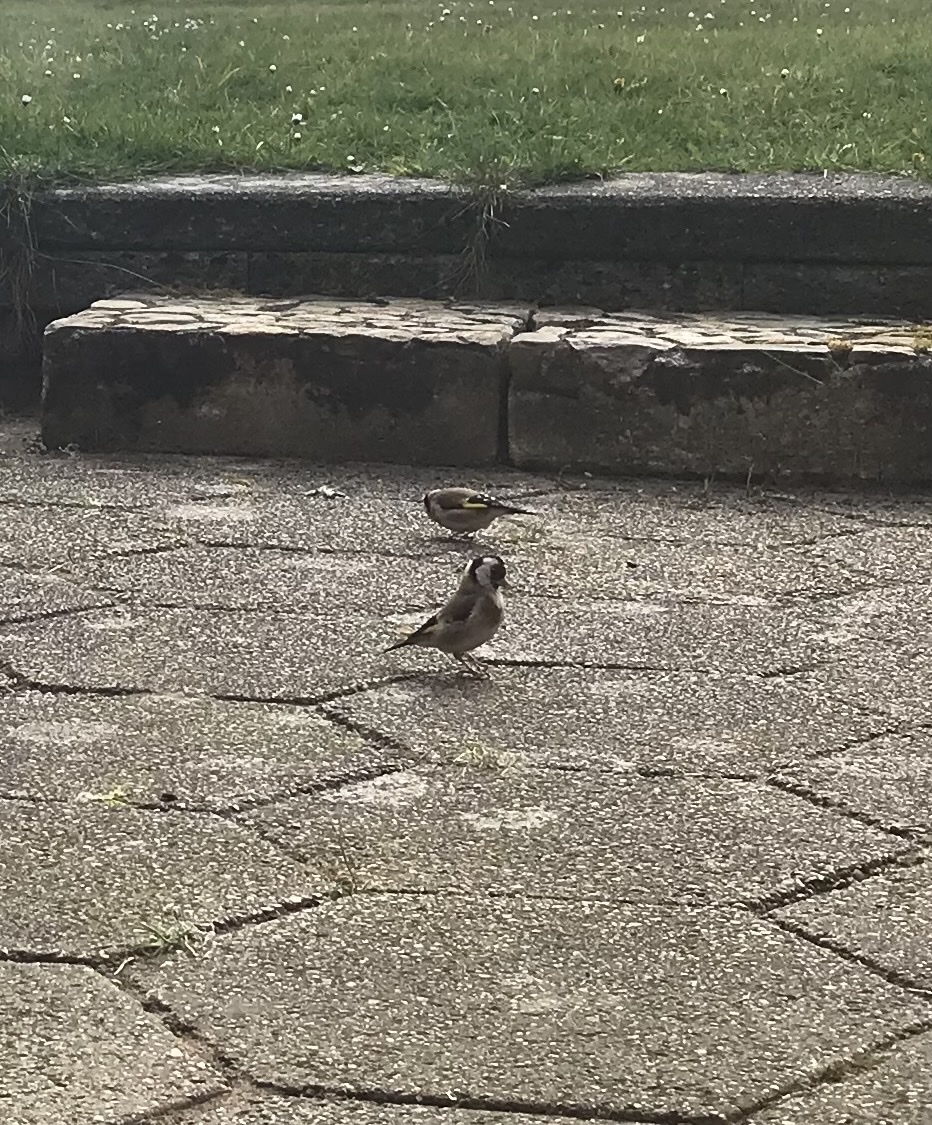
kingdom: Animalia
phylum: Chordata
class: Aves
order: Passeriformes
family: Fringillidae
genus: Carduelis
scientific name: Carduelis carduelis
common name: European goldfinch
